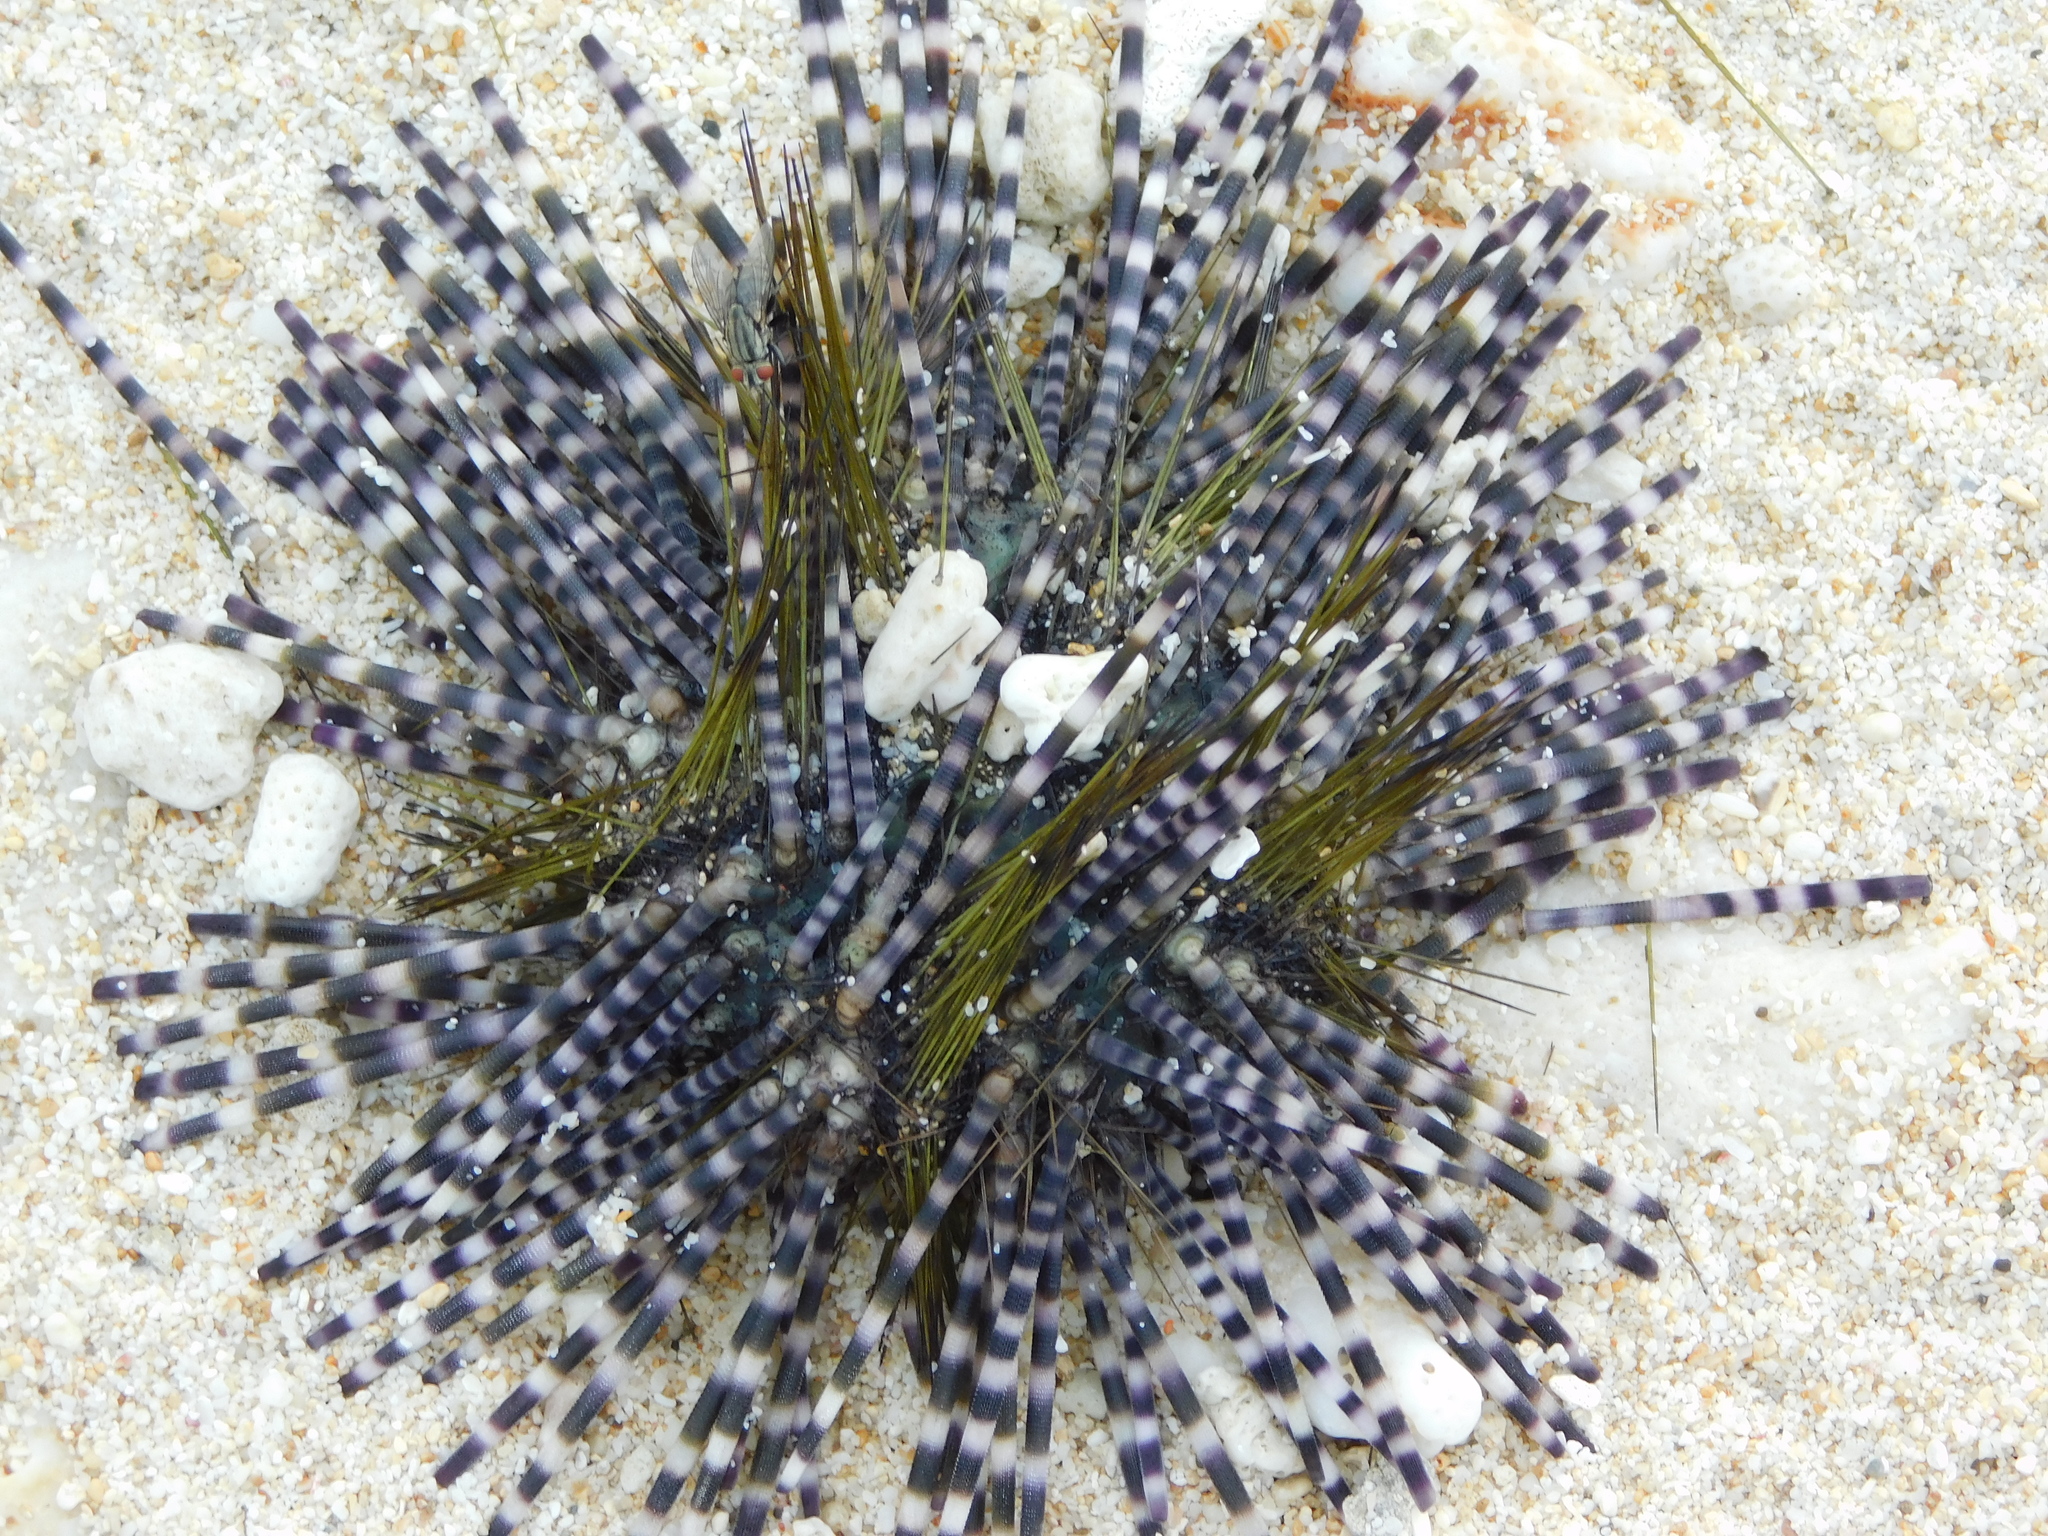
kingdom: Animalia
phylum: Echinodermata
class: Echinoidea
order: Diadematoida
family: Diadematidae
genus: Echinothrix
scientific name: Echinothrix calamaris
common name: Banded sea urchin
